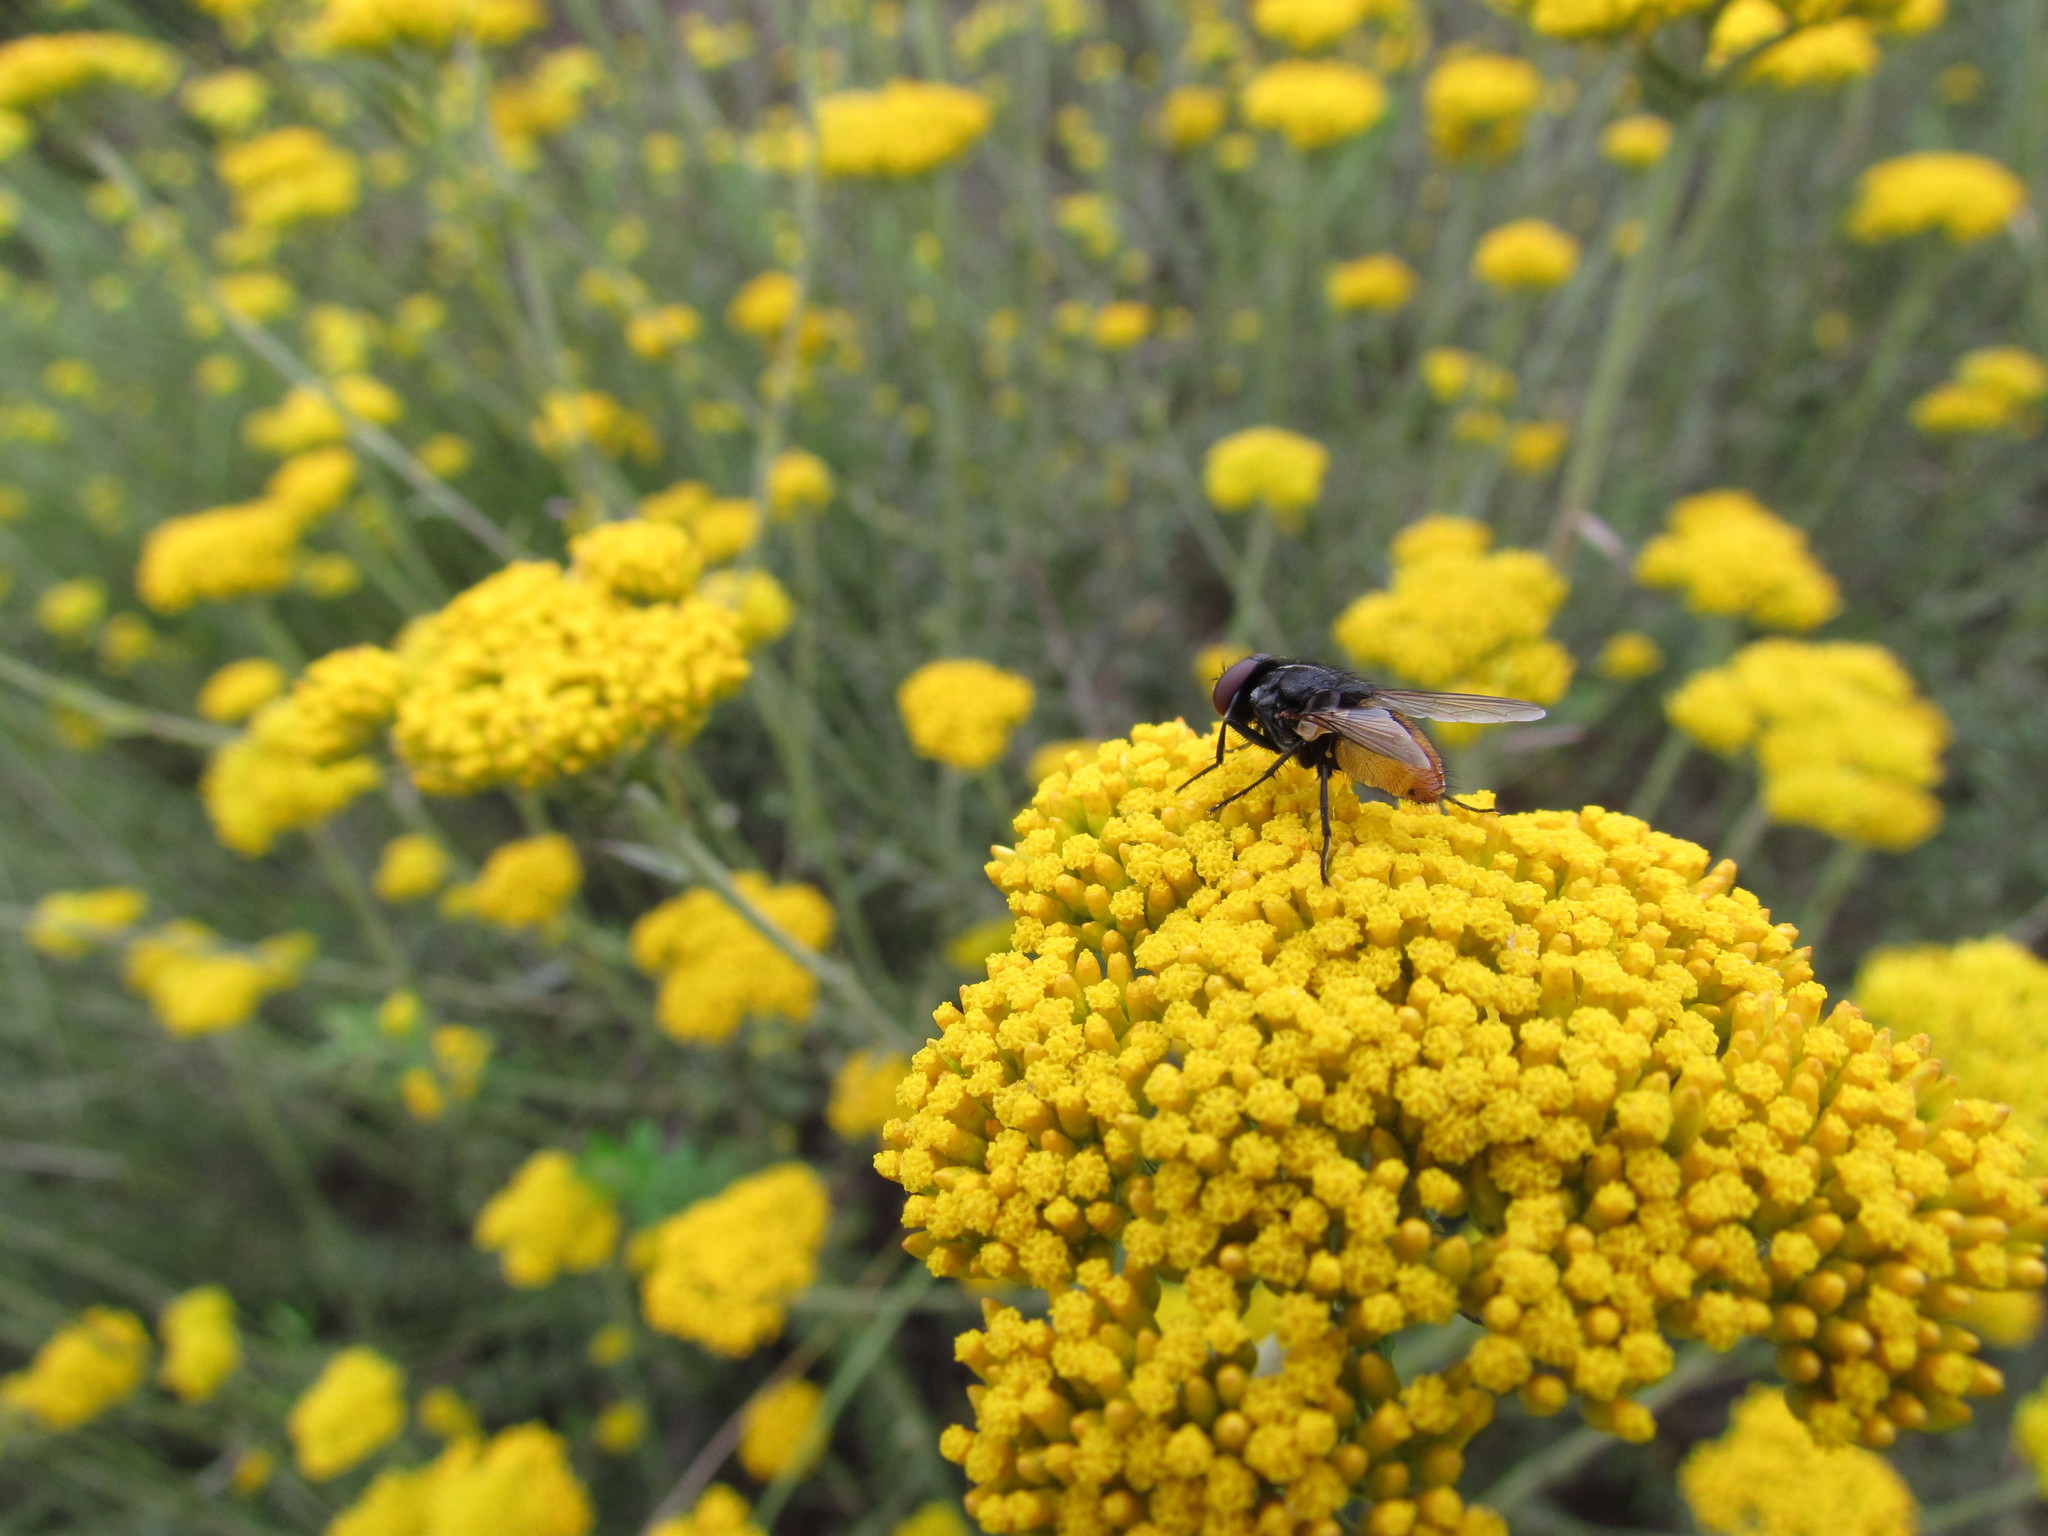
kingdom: Plantae
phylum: Tracheophyta
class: Magnoliopsida
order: Asterales
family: Asteraceae
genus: Helichrysum
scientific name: Helichrysum cymosum
